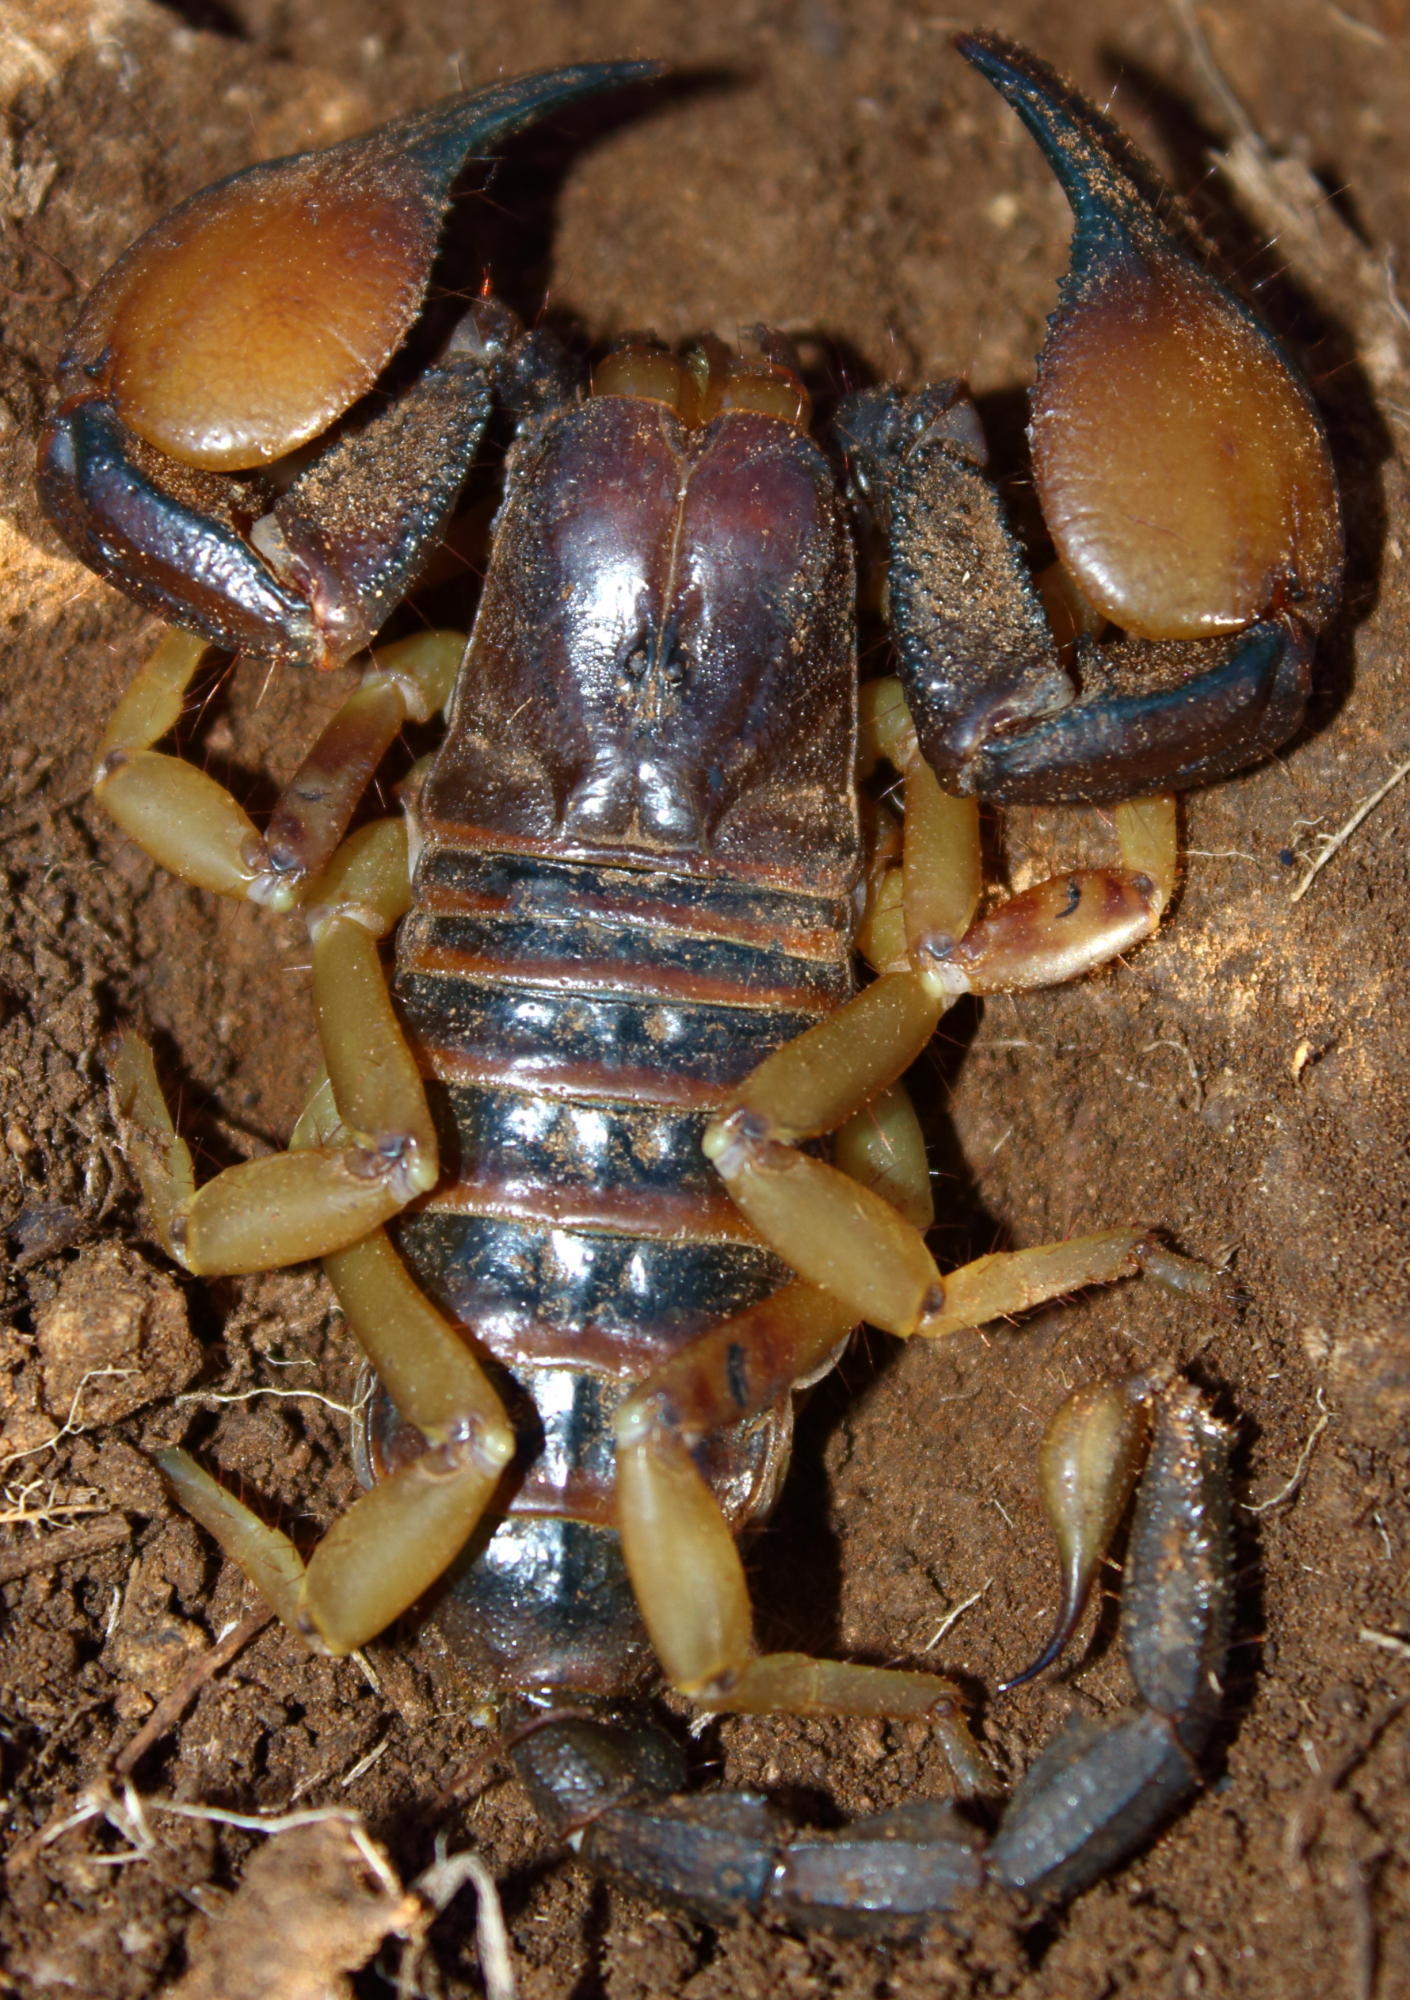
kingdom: Animalia
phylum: Arthropoda
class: Arachnida
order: Scorpiones
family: Scorpionidae
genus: Opistophthalmus
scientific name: Opistophthalmus carinatus
